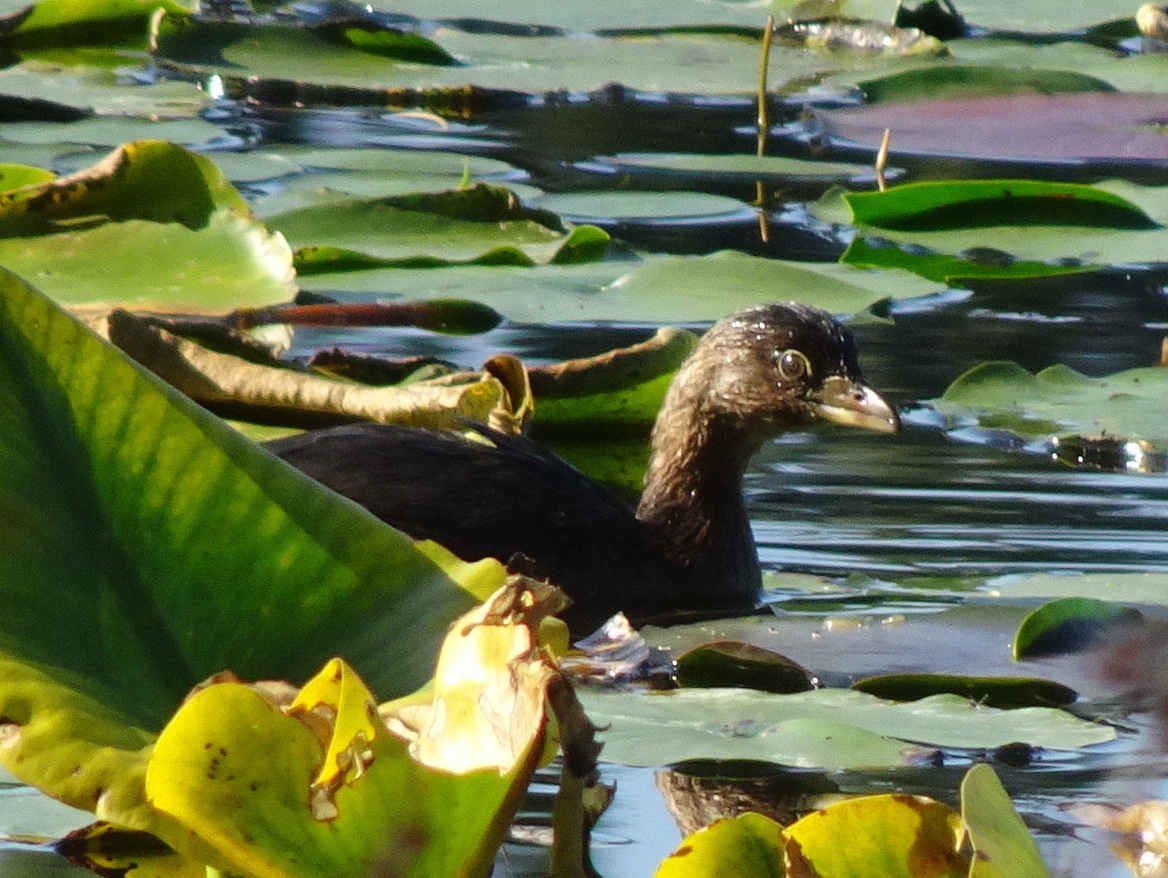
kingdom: Animalia
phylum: Chordata
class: Aves
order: Podicipediformes
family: Podicipedidae
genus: Podilymbus
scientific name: Podilymbus podiceps
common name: Pied-billed grebe
